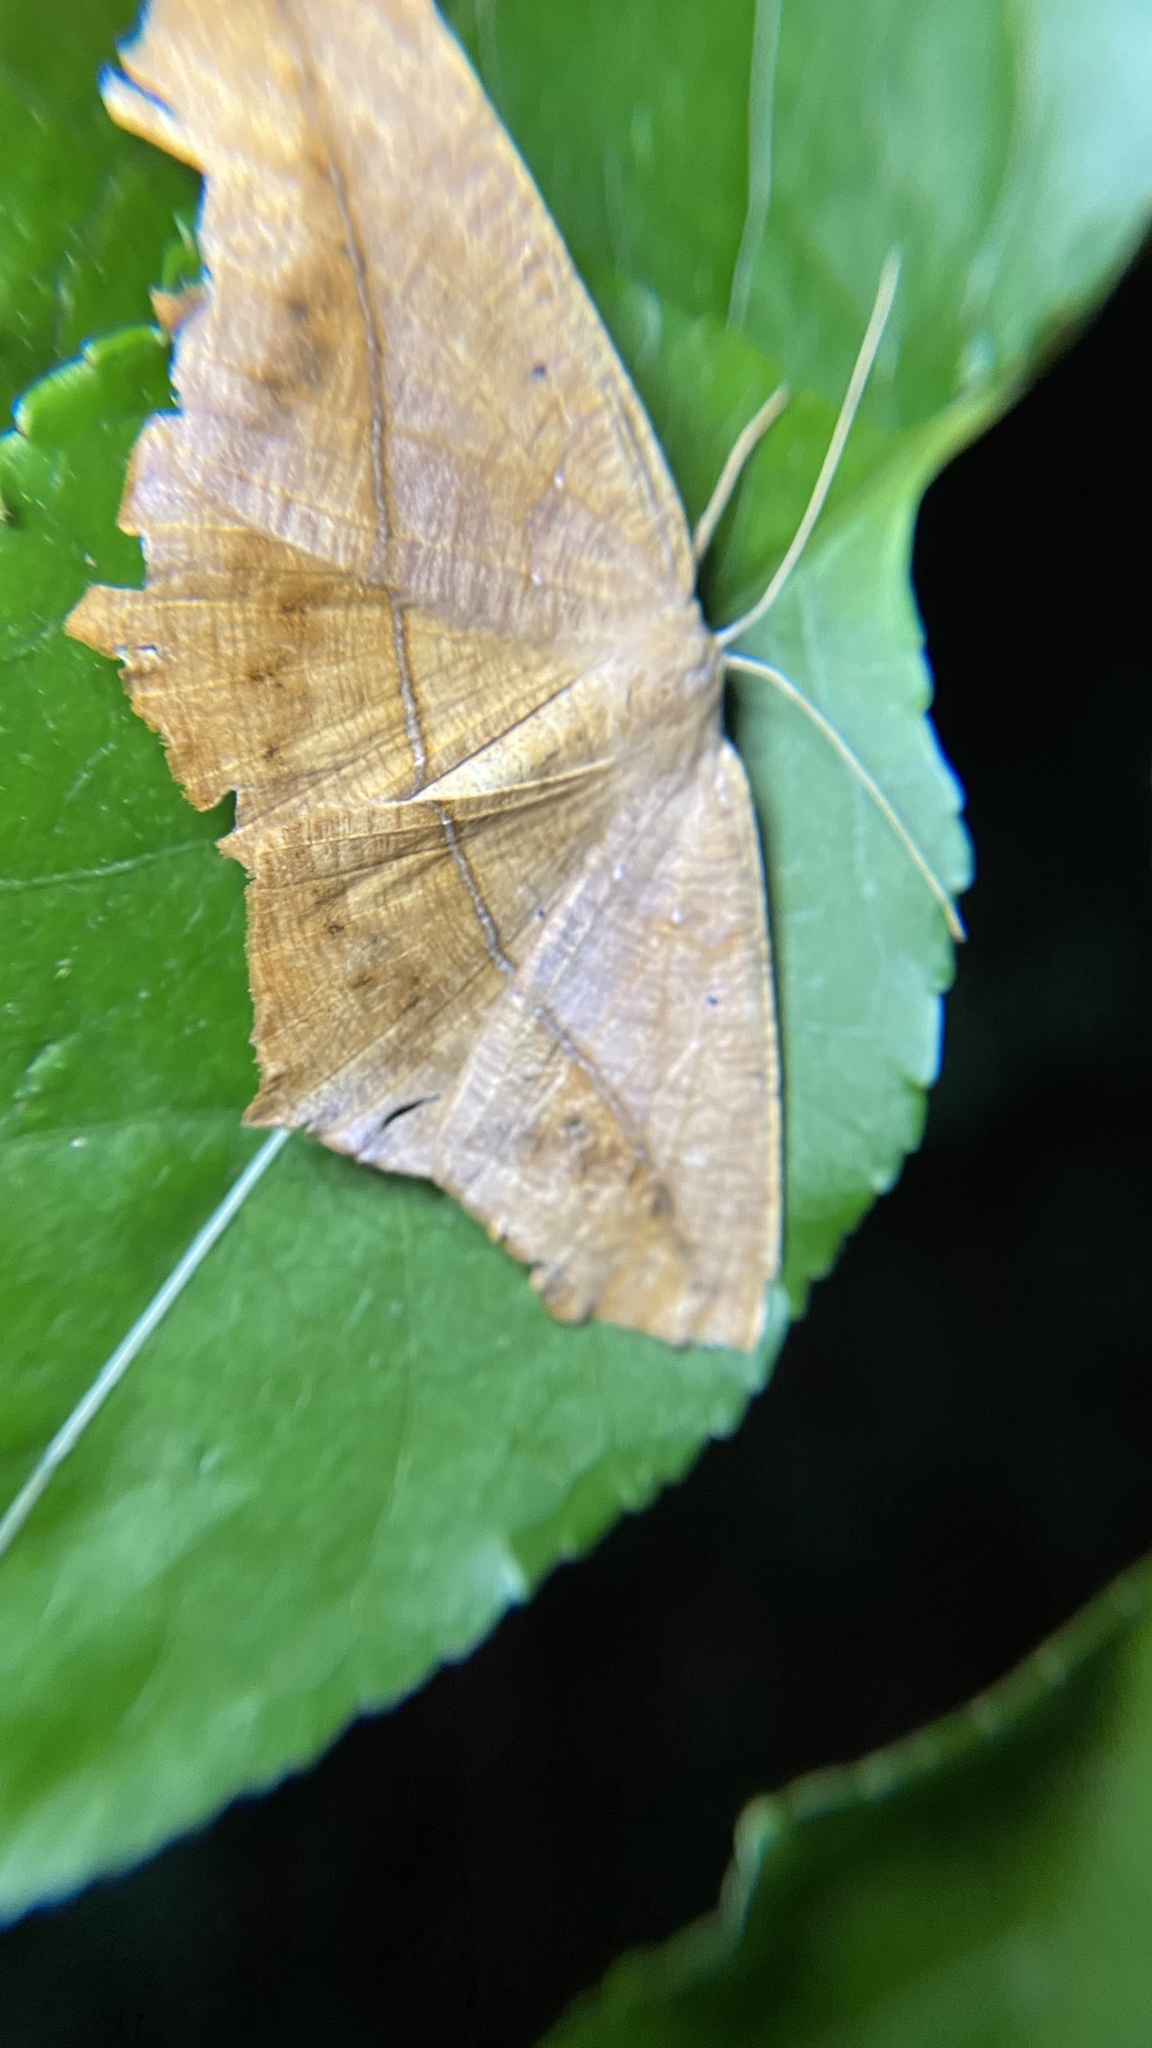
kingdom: Animalia
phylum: Arthropoda
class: Insecta
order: Lepidoptera
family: Geometridae
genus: Prochoerodes
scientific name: Prochoerodes lineola
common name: Large maple spanworm
